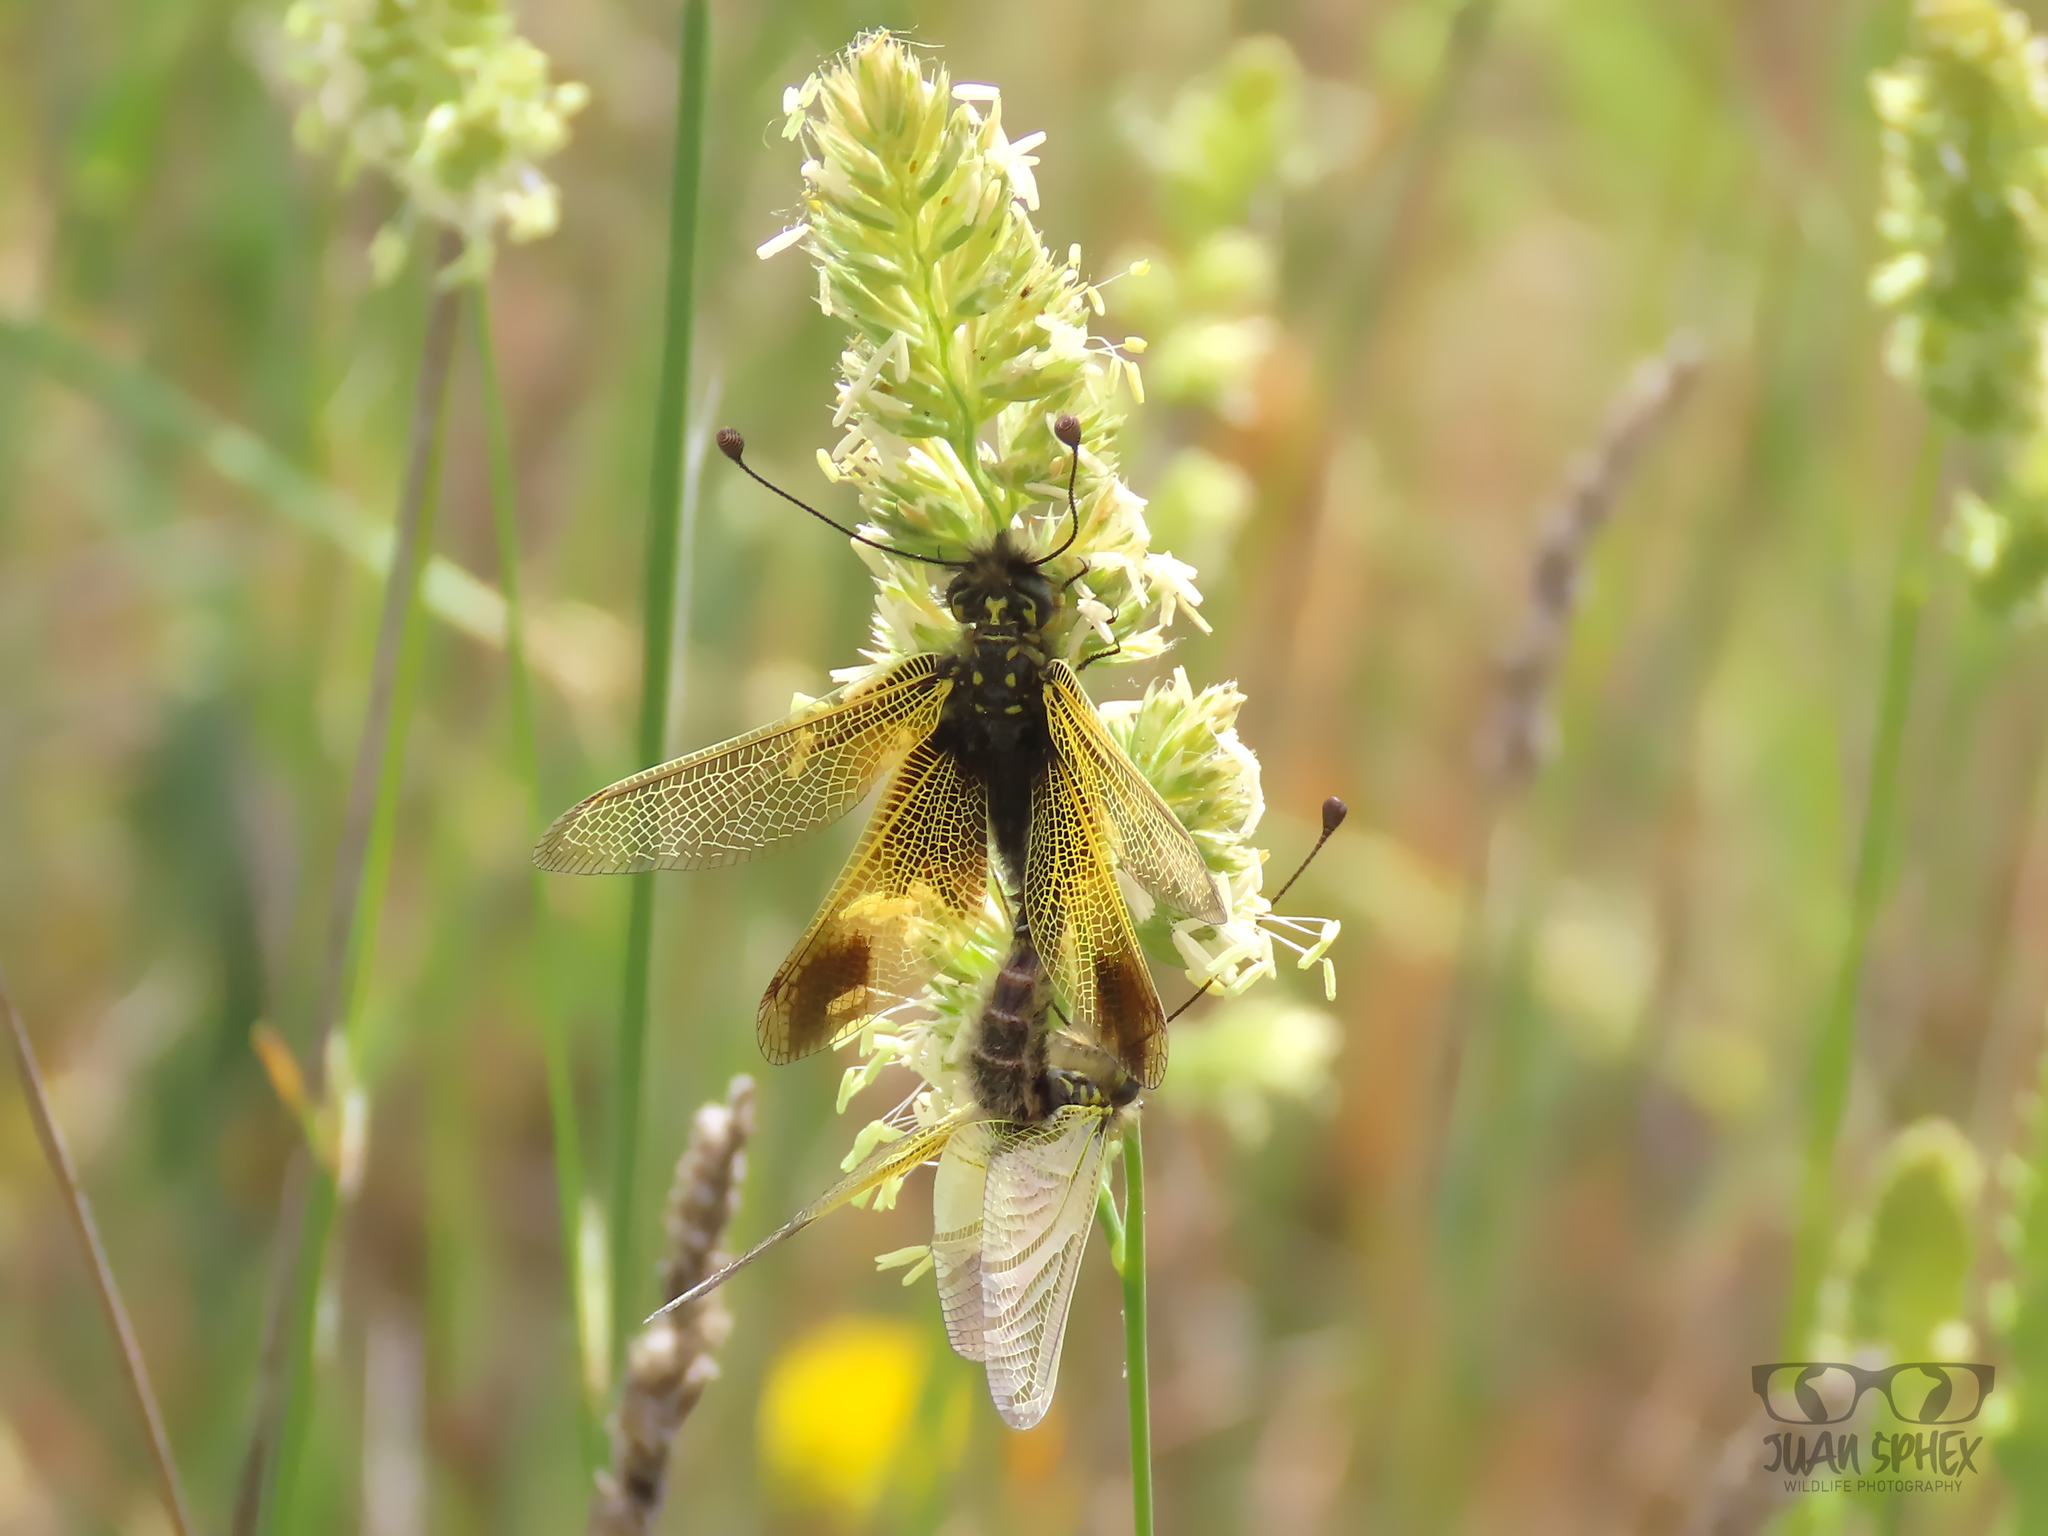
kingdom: Plantae
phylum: Tracheophyta
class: Liliopsida
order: Poales
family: Poaceae
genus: Dactylis
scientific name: Dactylis glomerata
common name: Orchardgrass
